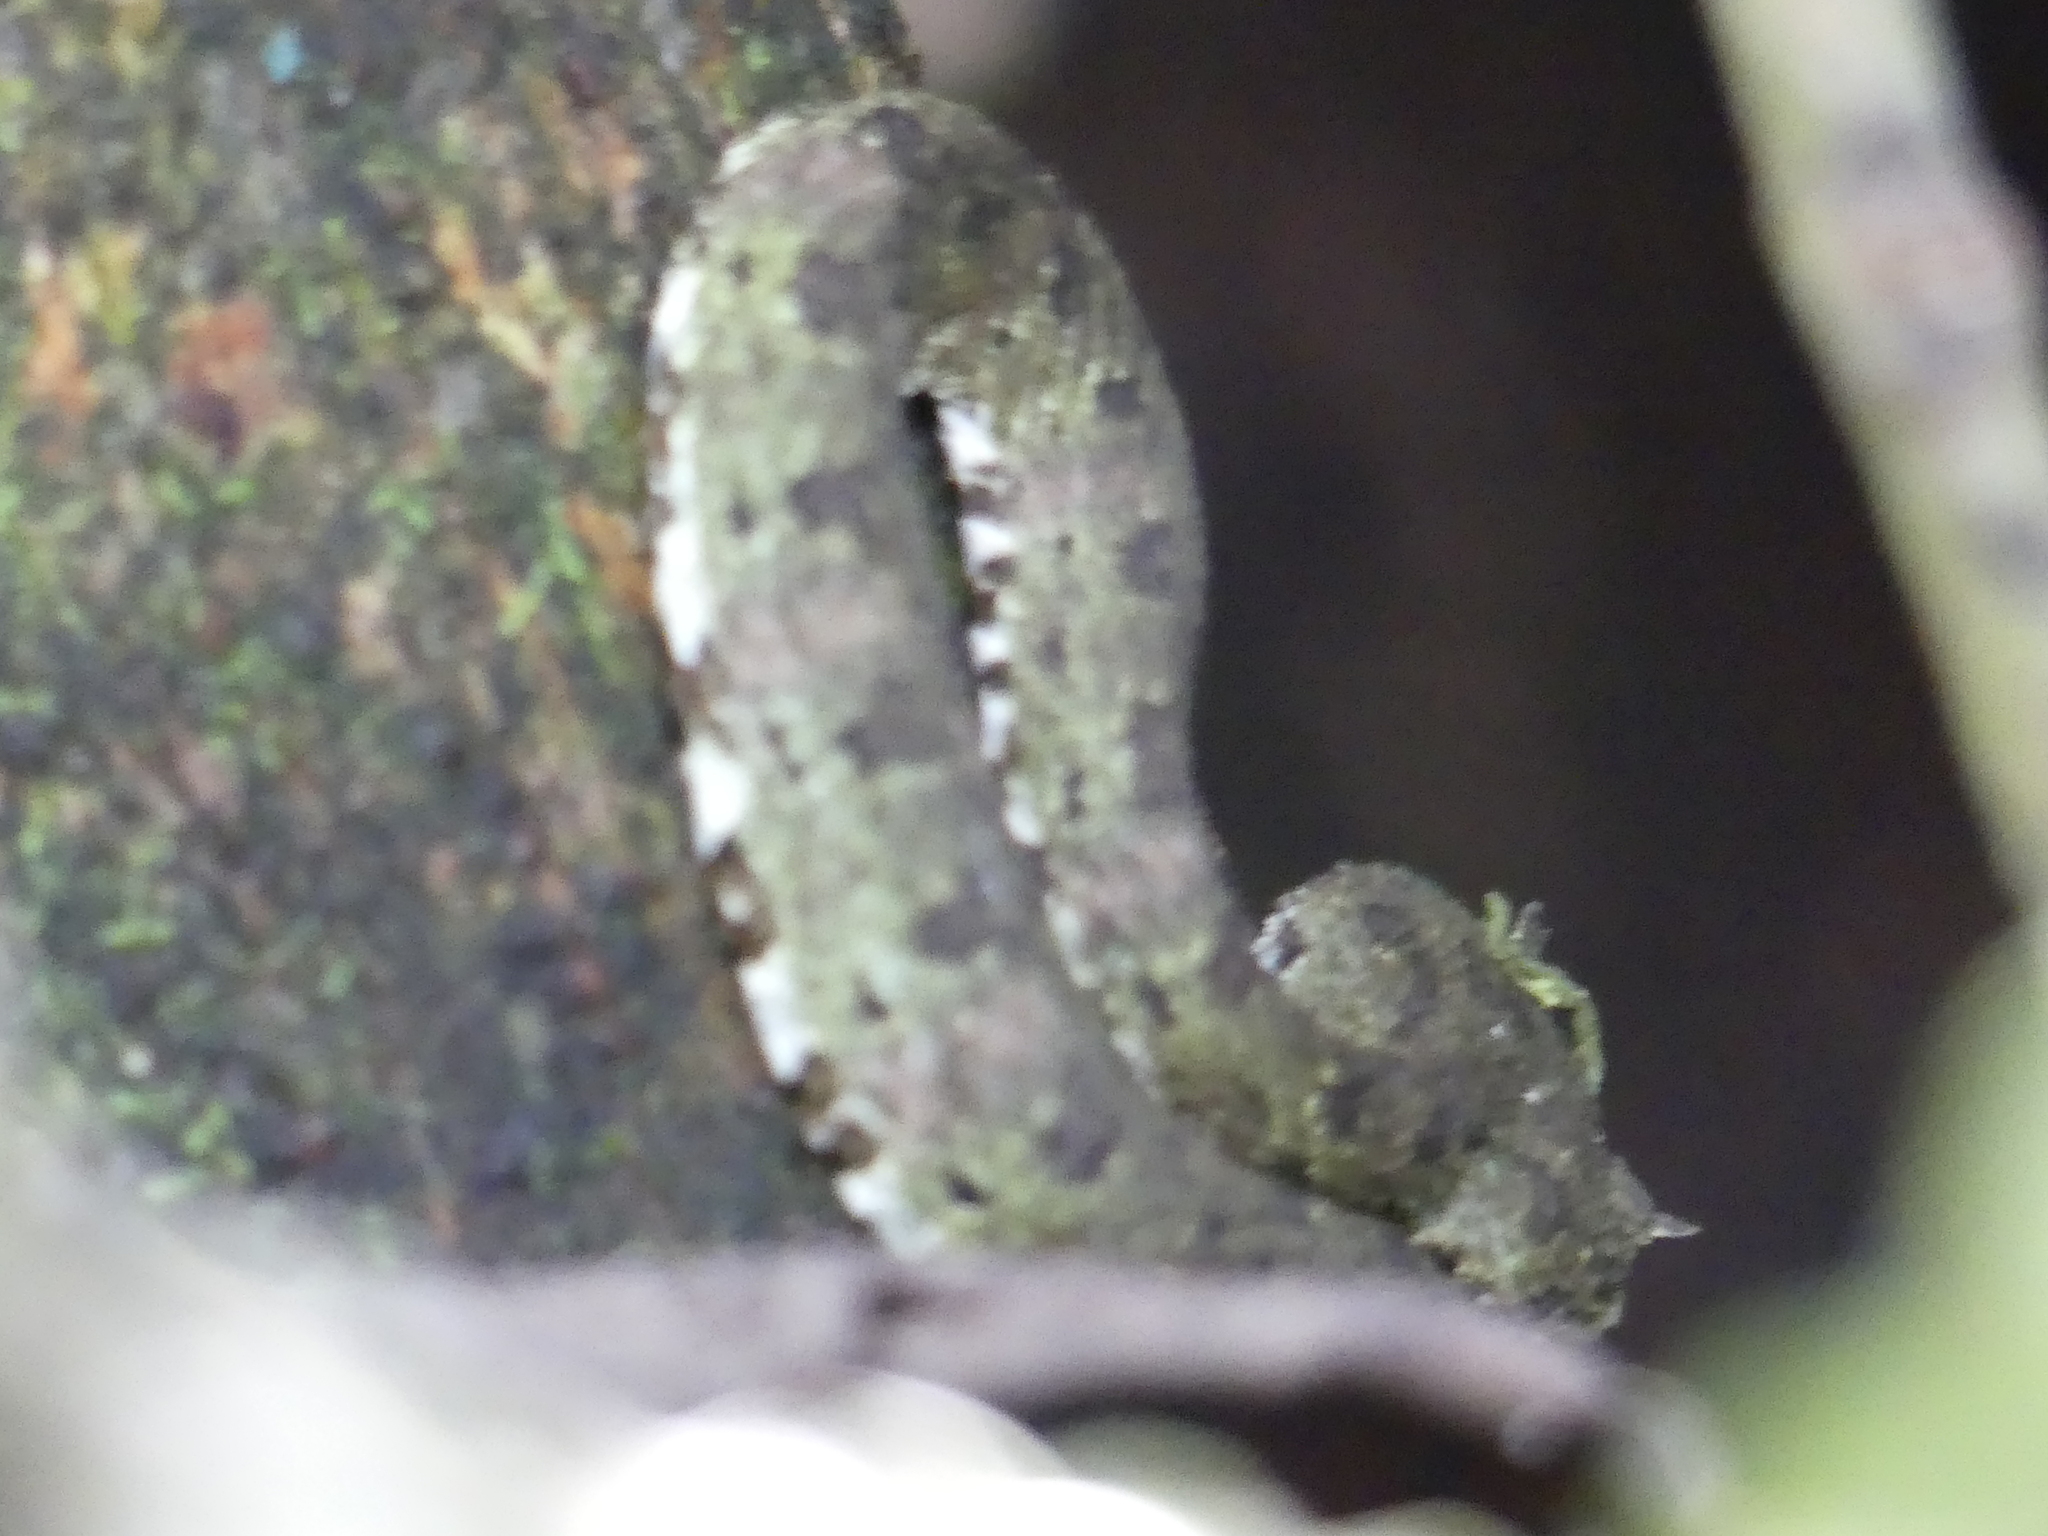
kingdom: Animalia
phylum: Chordata
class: Squamata
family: Viperidae
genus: Bothriechis
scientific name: Bothriechis schlegelii
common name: Eyelash viper
